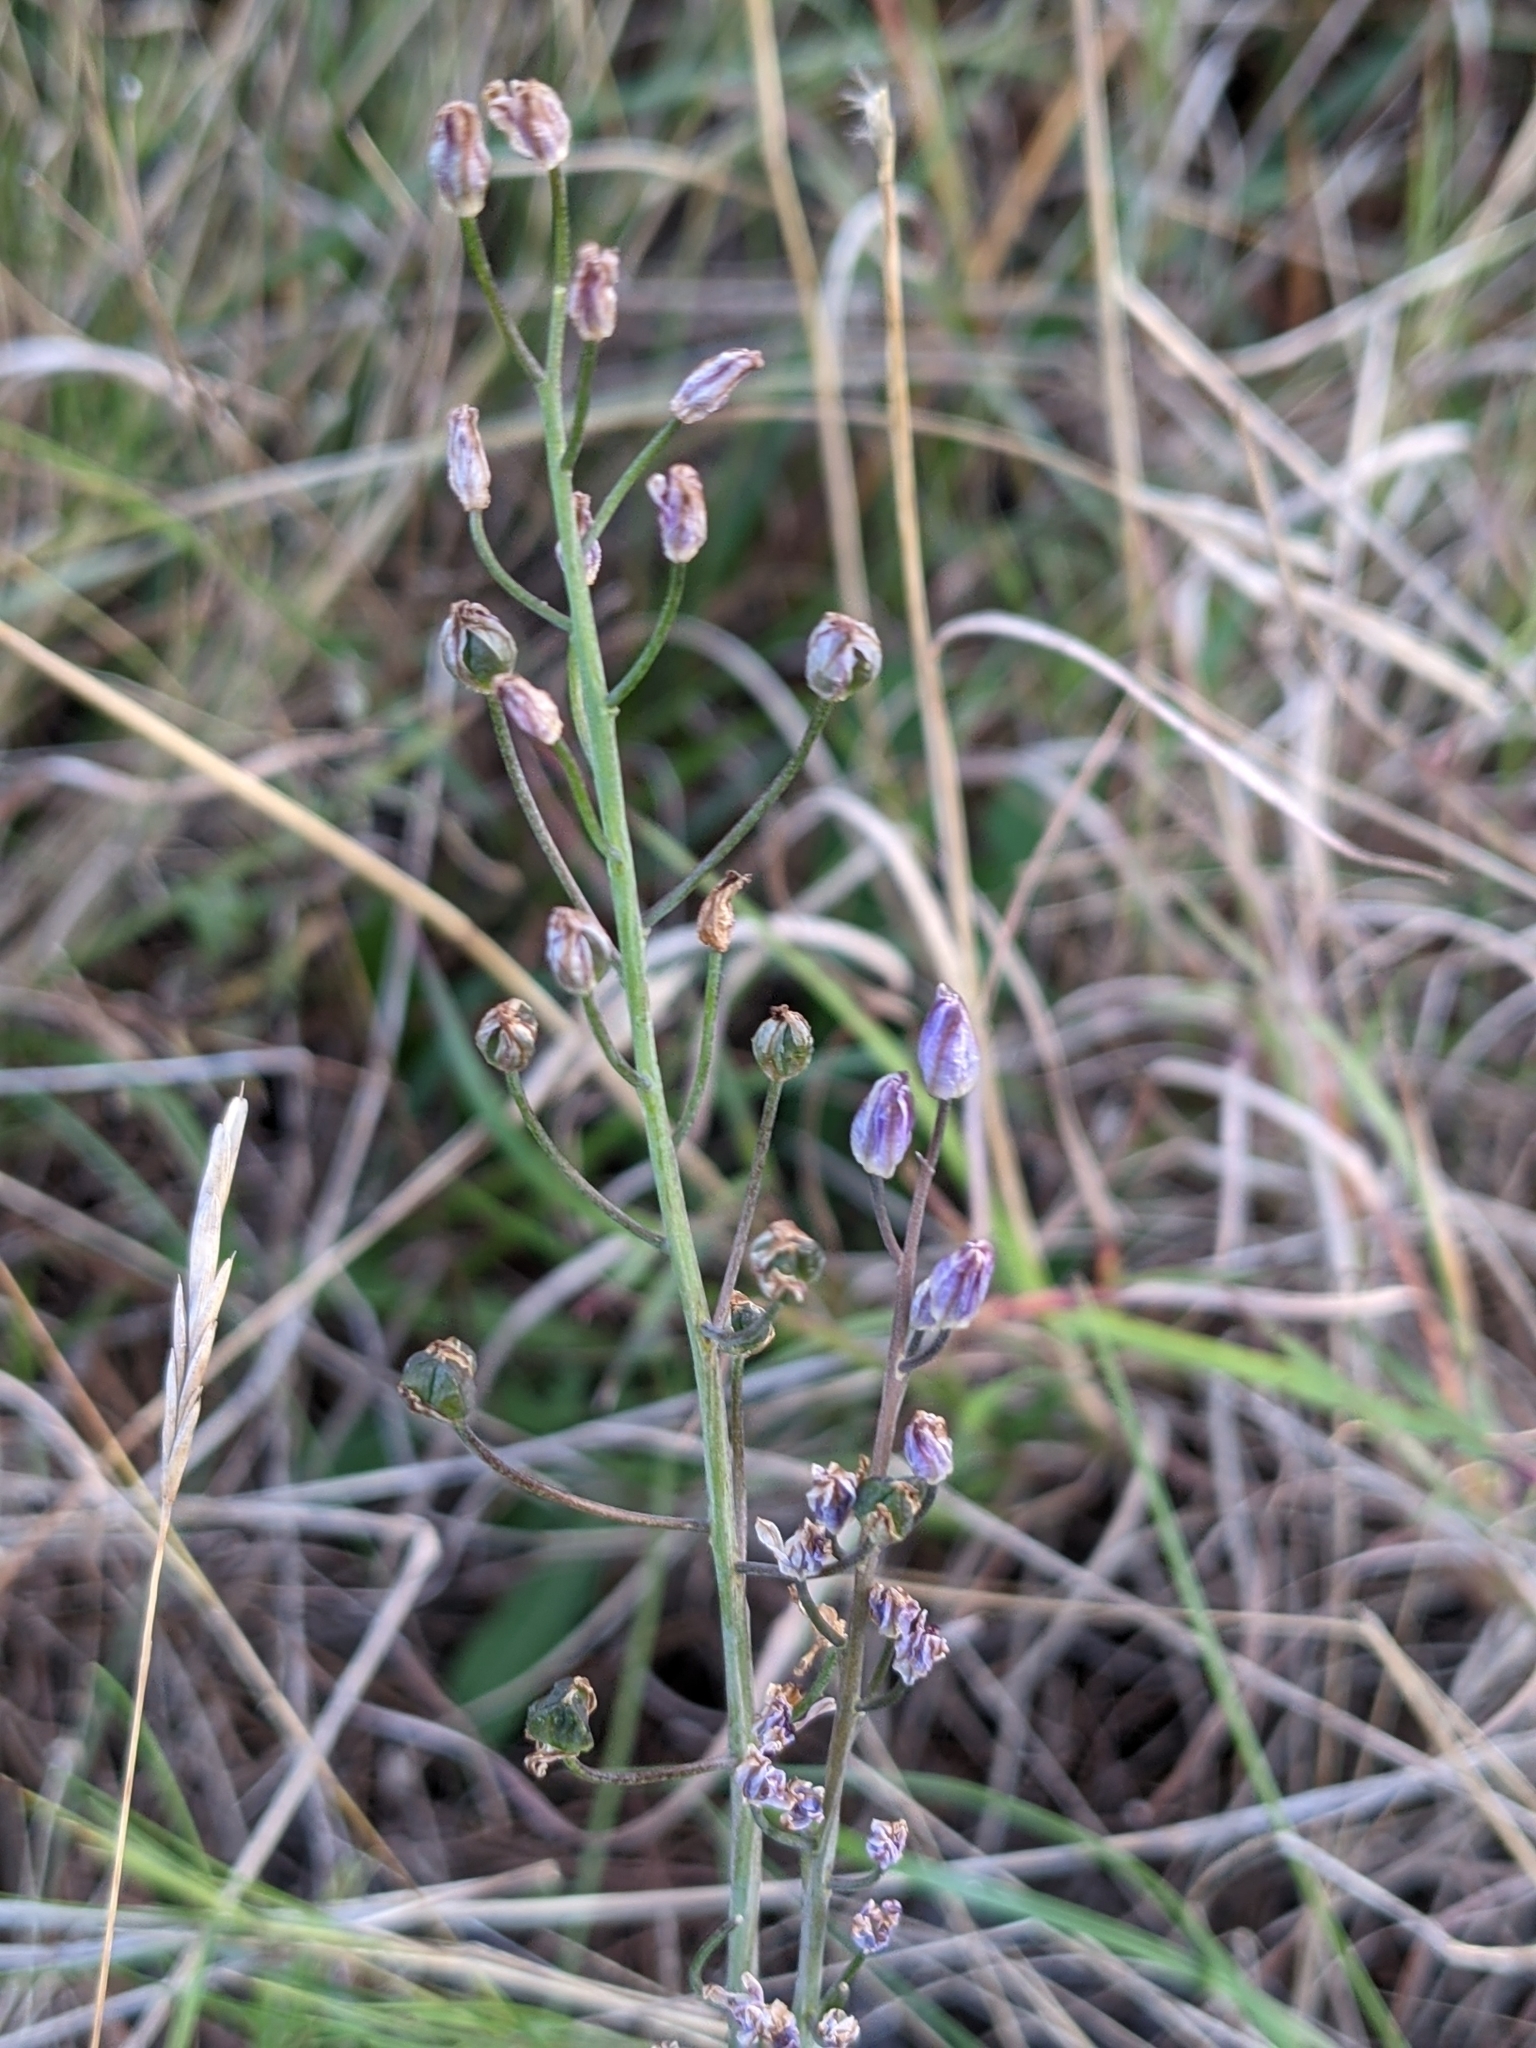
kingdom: Plantae
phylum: Tracheophyta
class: Liliopsida
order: Asparagales
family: Asparagaceae
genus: Prospero
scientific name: Prospero autumnale
